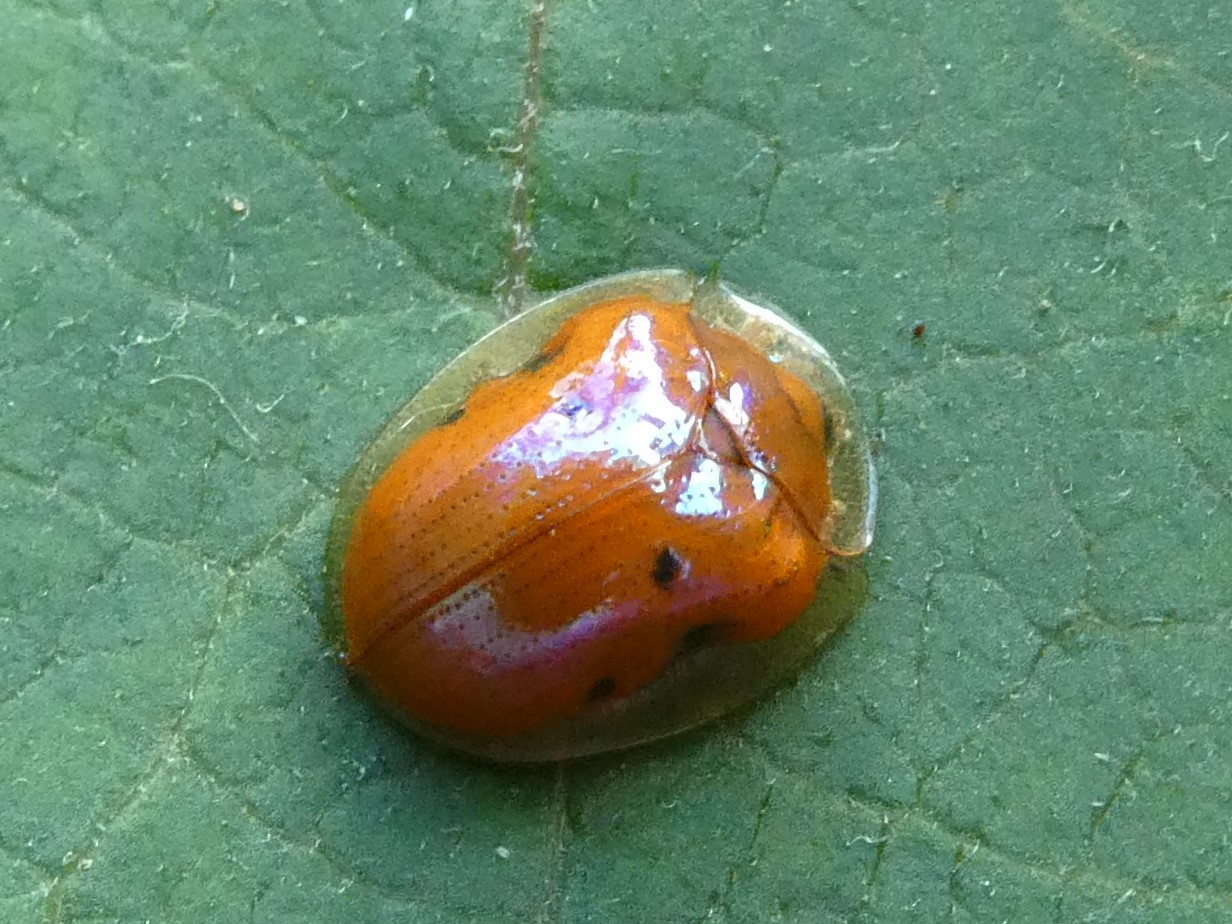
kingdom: Animalia
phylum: Arthropoda
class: Insecta
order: Coleoptera
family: Chrysomelidae
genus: Charidotella
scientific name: Charidotella sexpunctata
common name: Golden tortoise beetle
